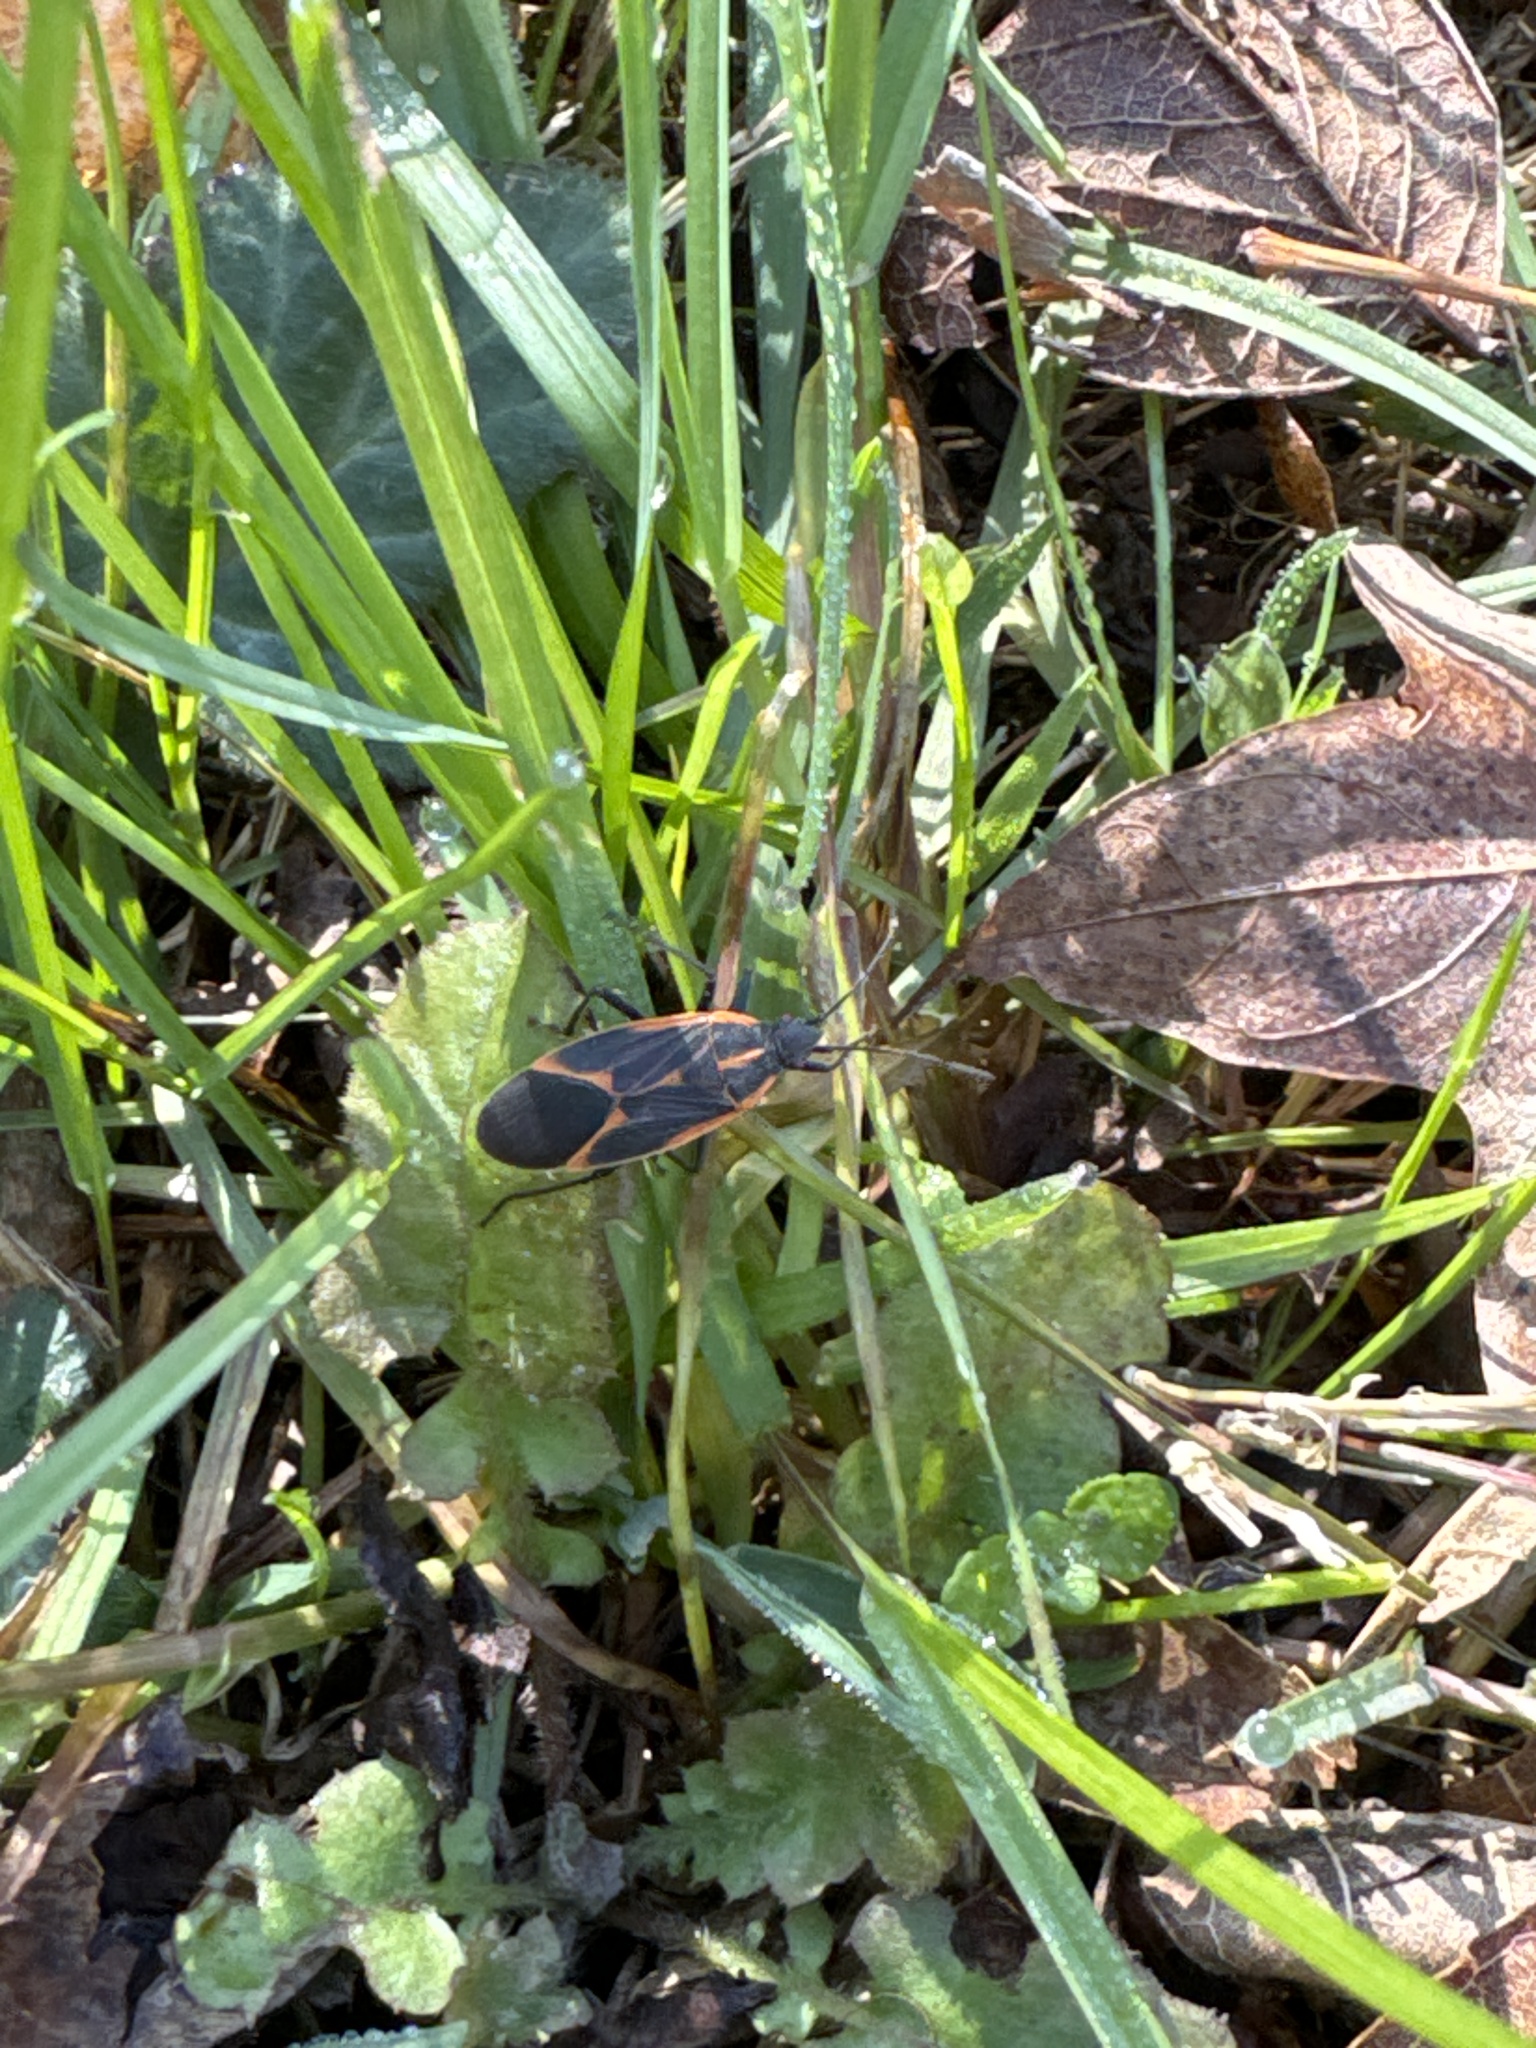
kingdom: Animalia
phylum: Arthropoda
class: Insecta
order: Hemiptera
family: Rhopalidae
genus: Boisea
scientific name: Boisea trivittata
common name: Boxelder bug
